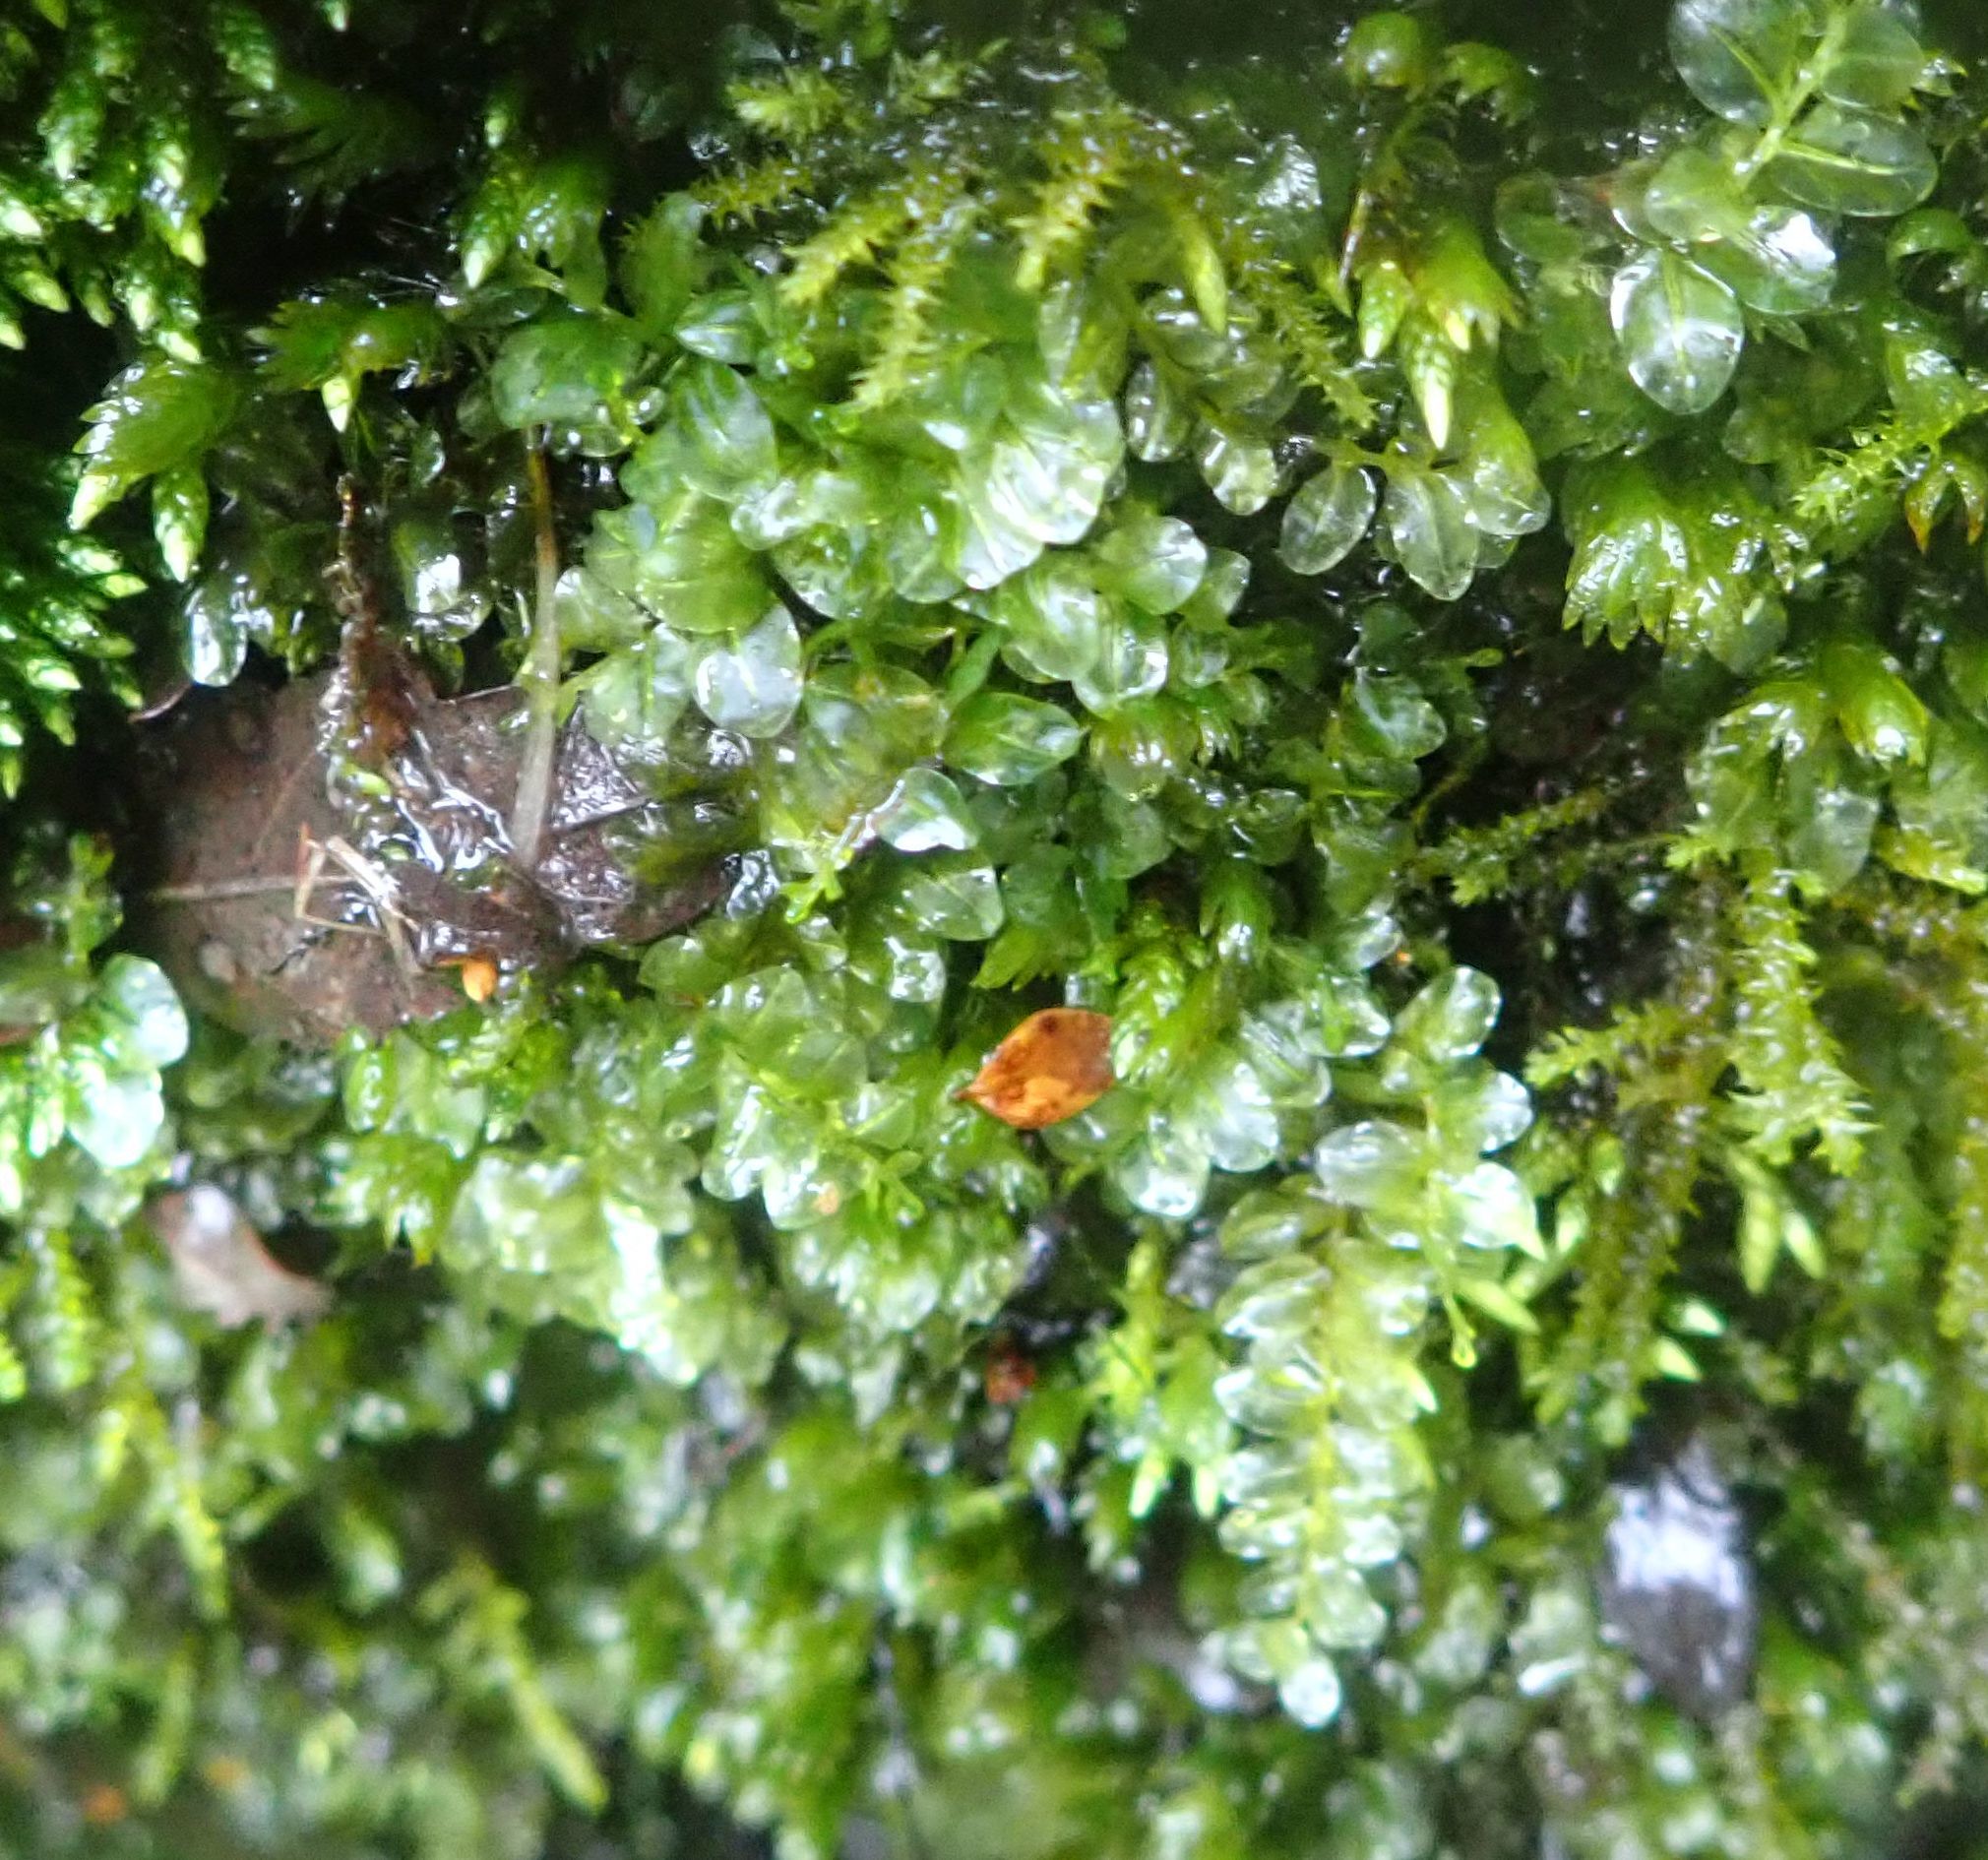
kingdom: Plantae
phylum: Bryophyta
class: Bryopsida
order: Bryales
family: Mniaceae
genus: Plagiomnium
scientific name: Plagiomnium novae-zealandiae
